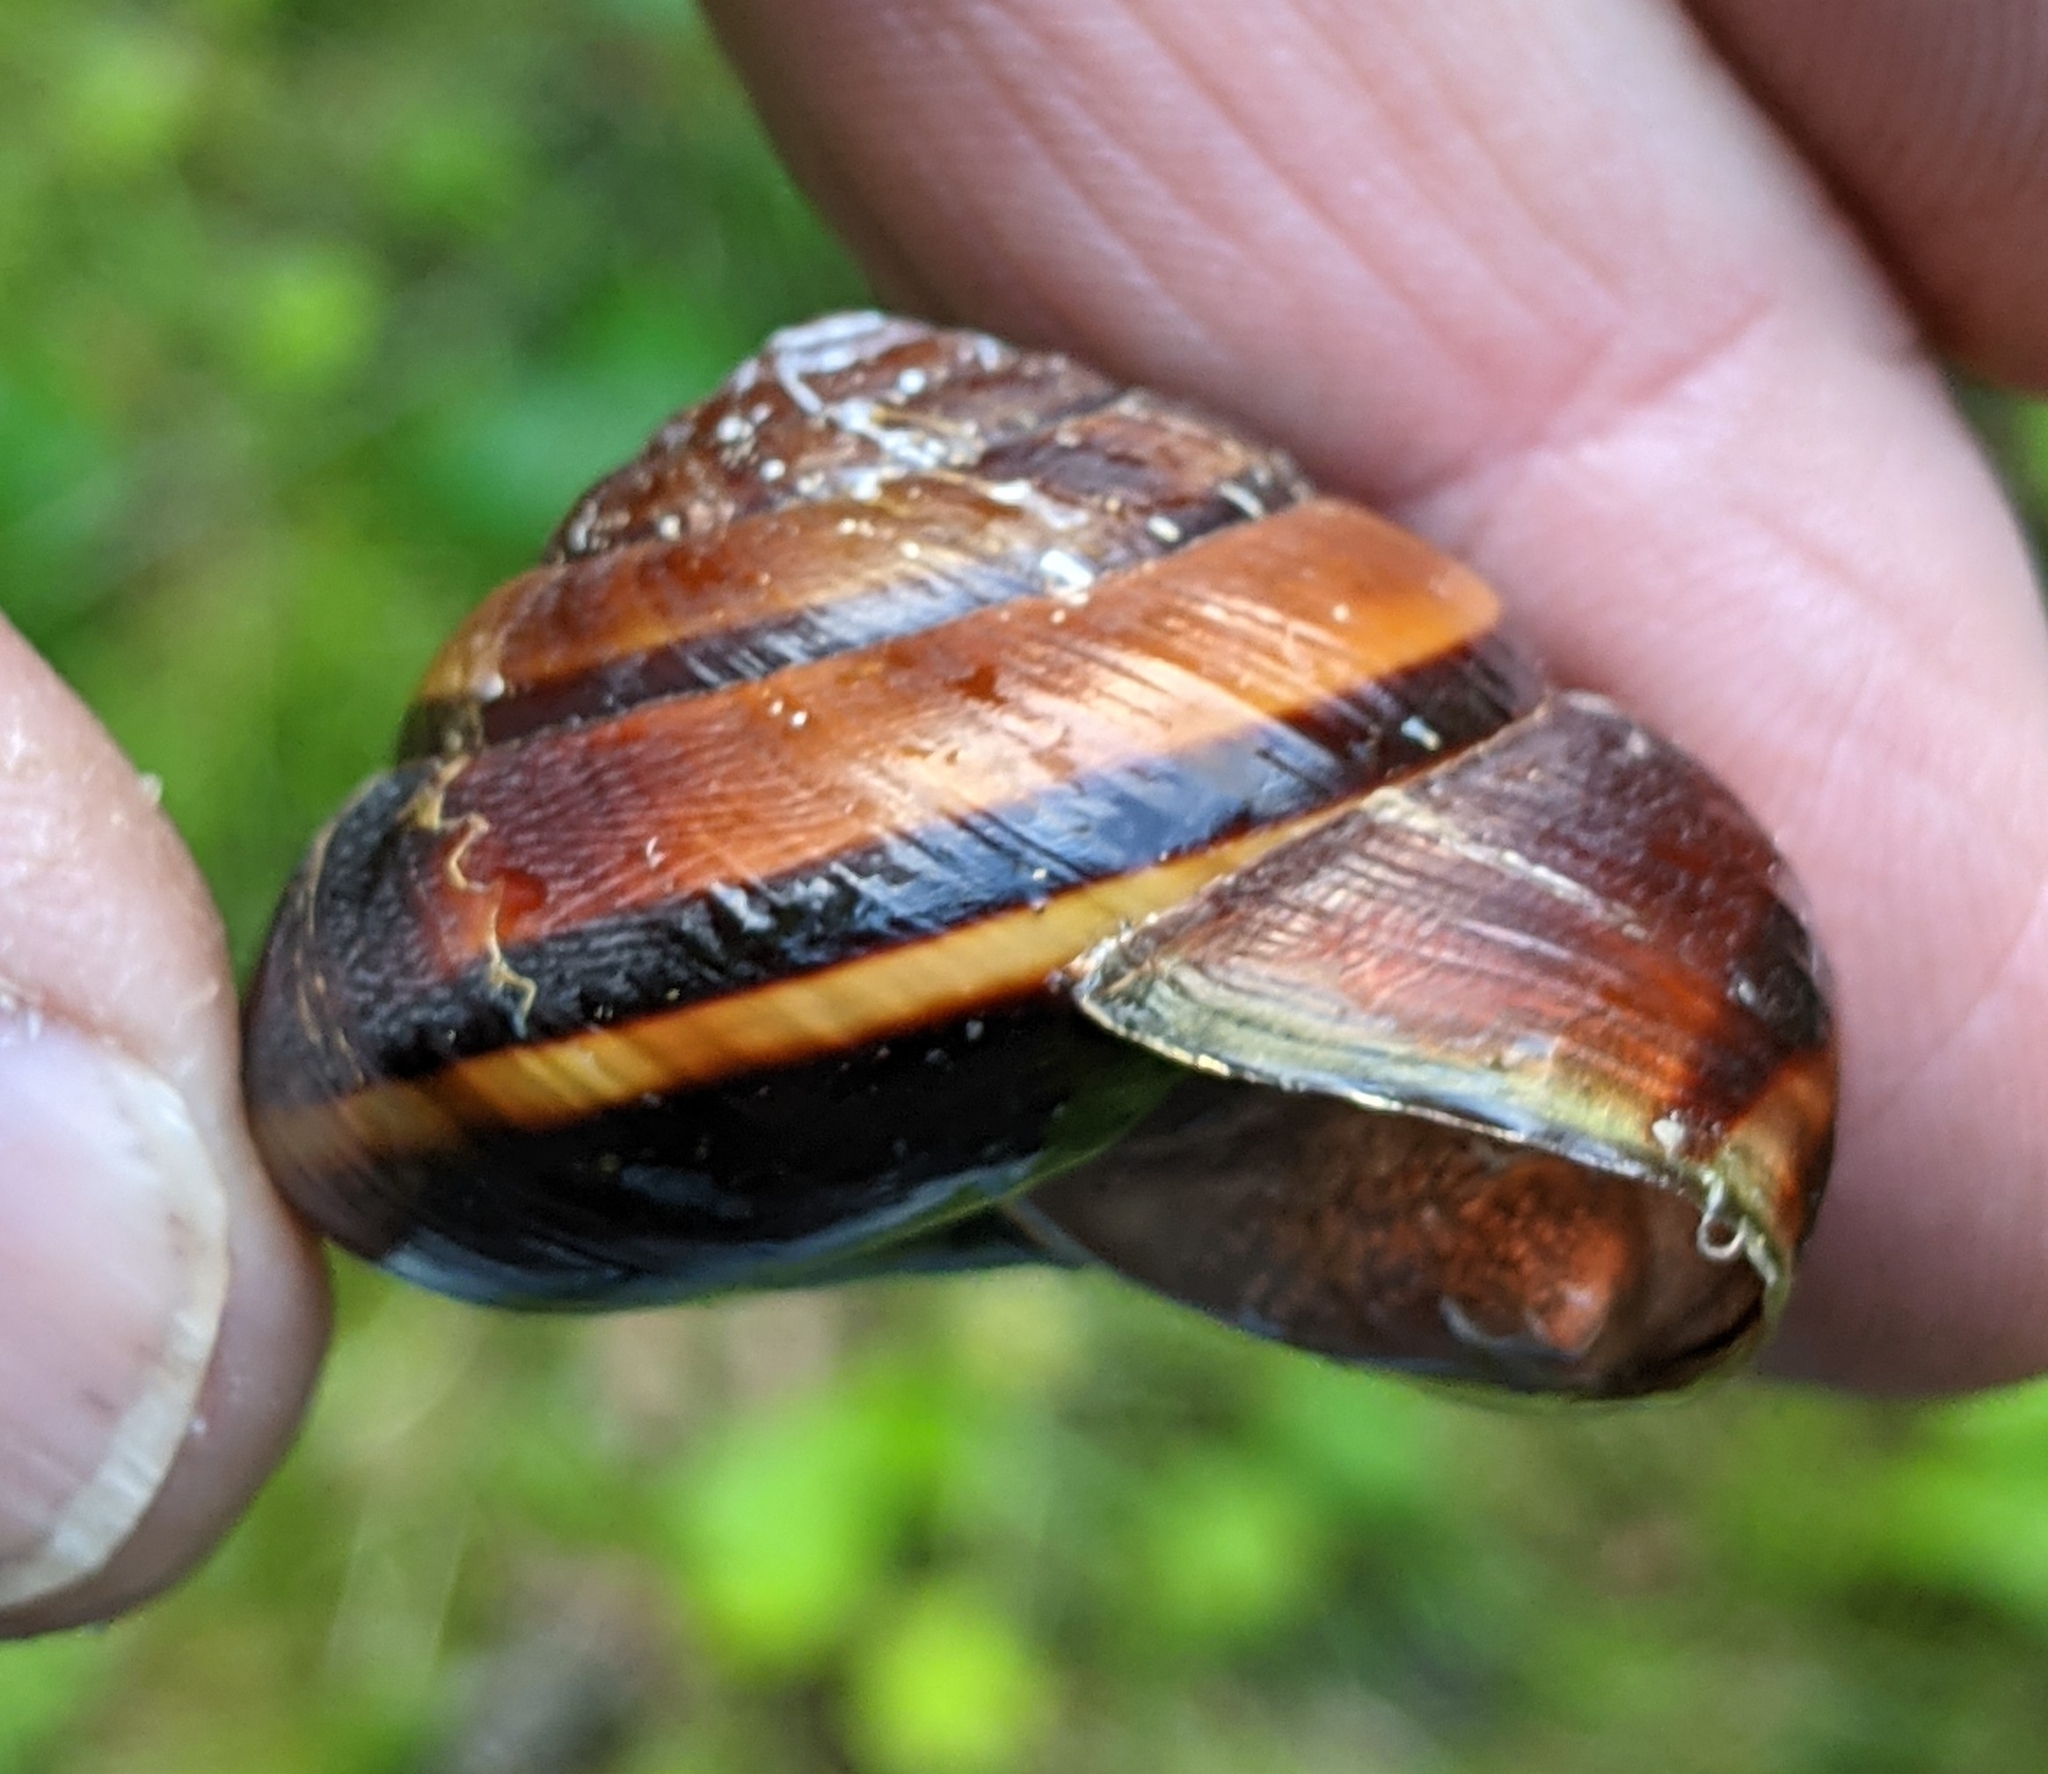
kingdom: Animalia
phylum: Mollusca
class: Gastropoda
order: Stylommatophora
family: Xanthonychidae
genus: Monadenia
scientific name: Monadenia fidelis
